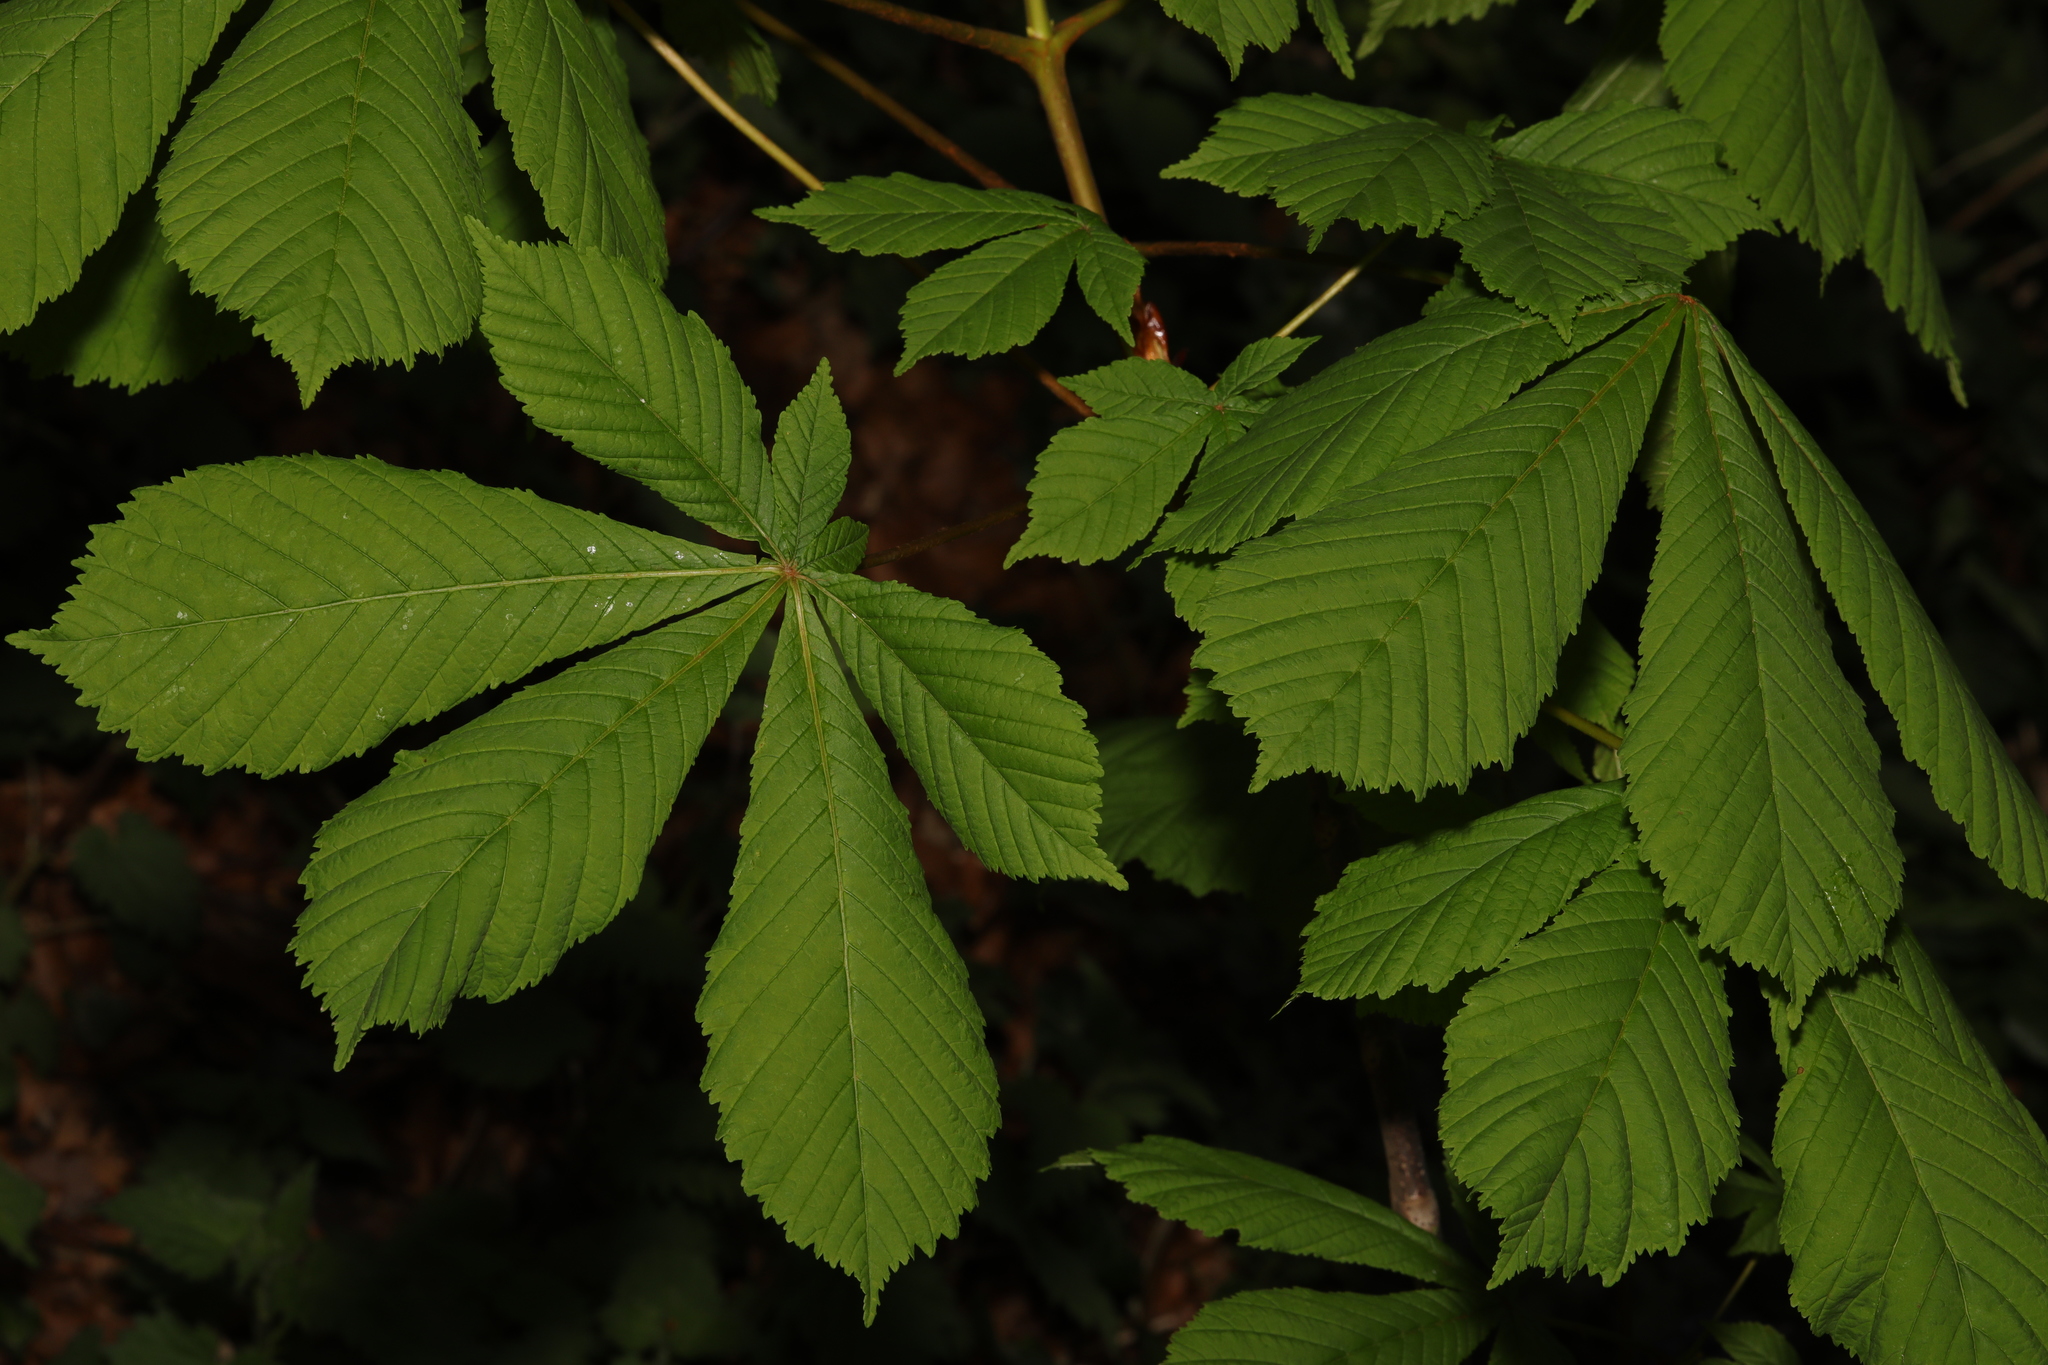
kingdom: Plantae
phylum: Tracheophyta
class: Magnoliopsida
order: Sapindales
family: Sapindaceae
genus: Aesculus
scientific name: Aesculus hippocastanum
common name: Horse-chestnut
